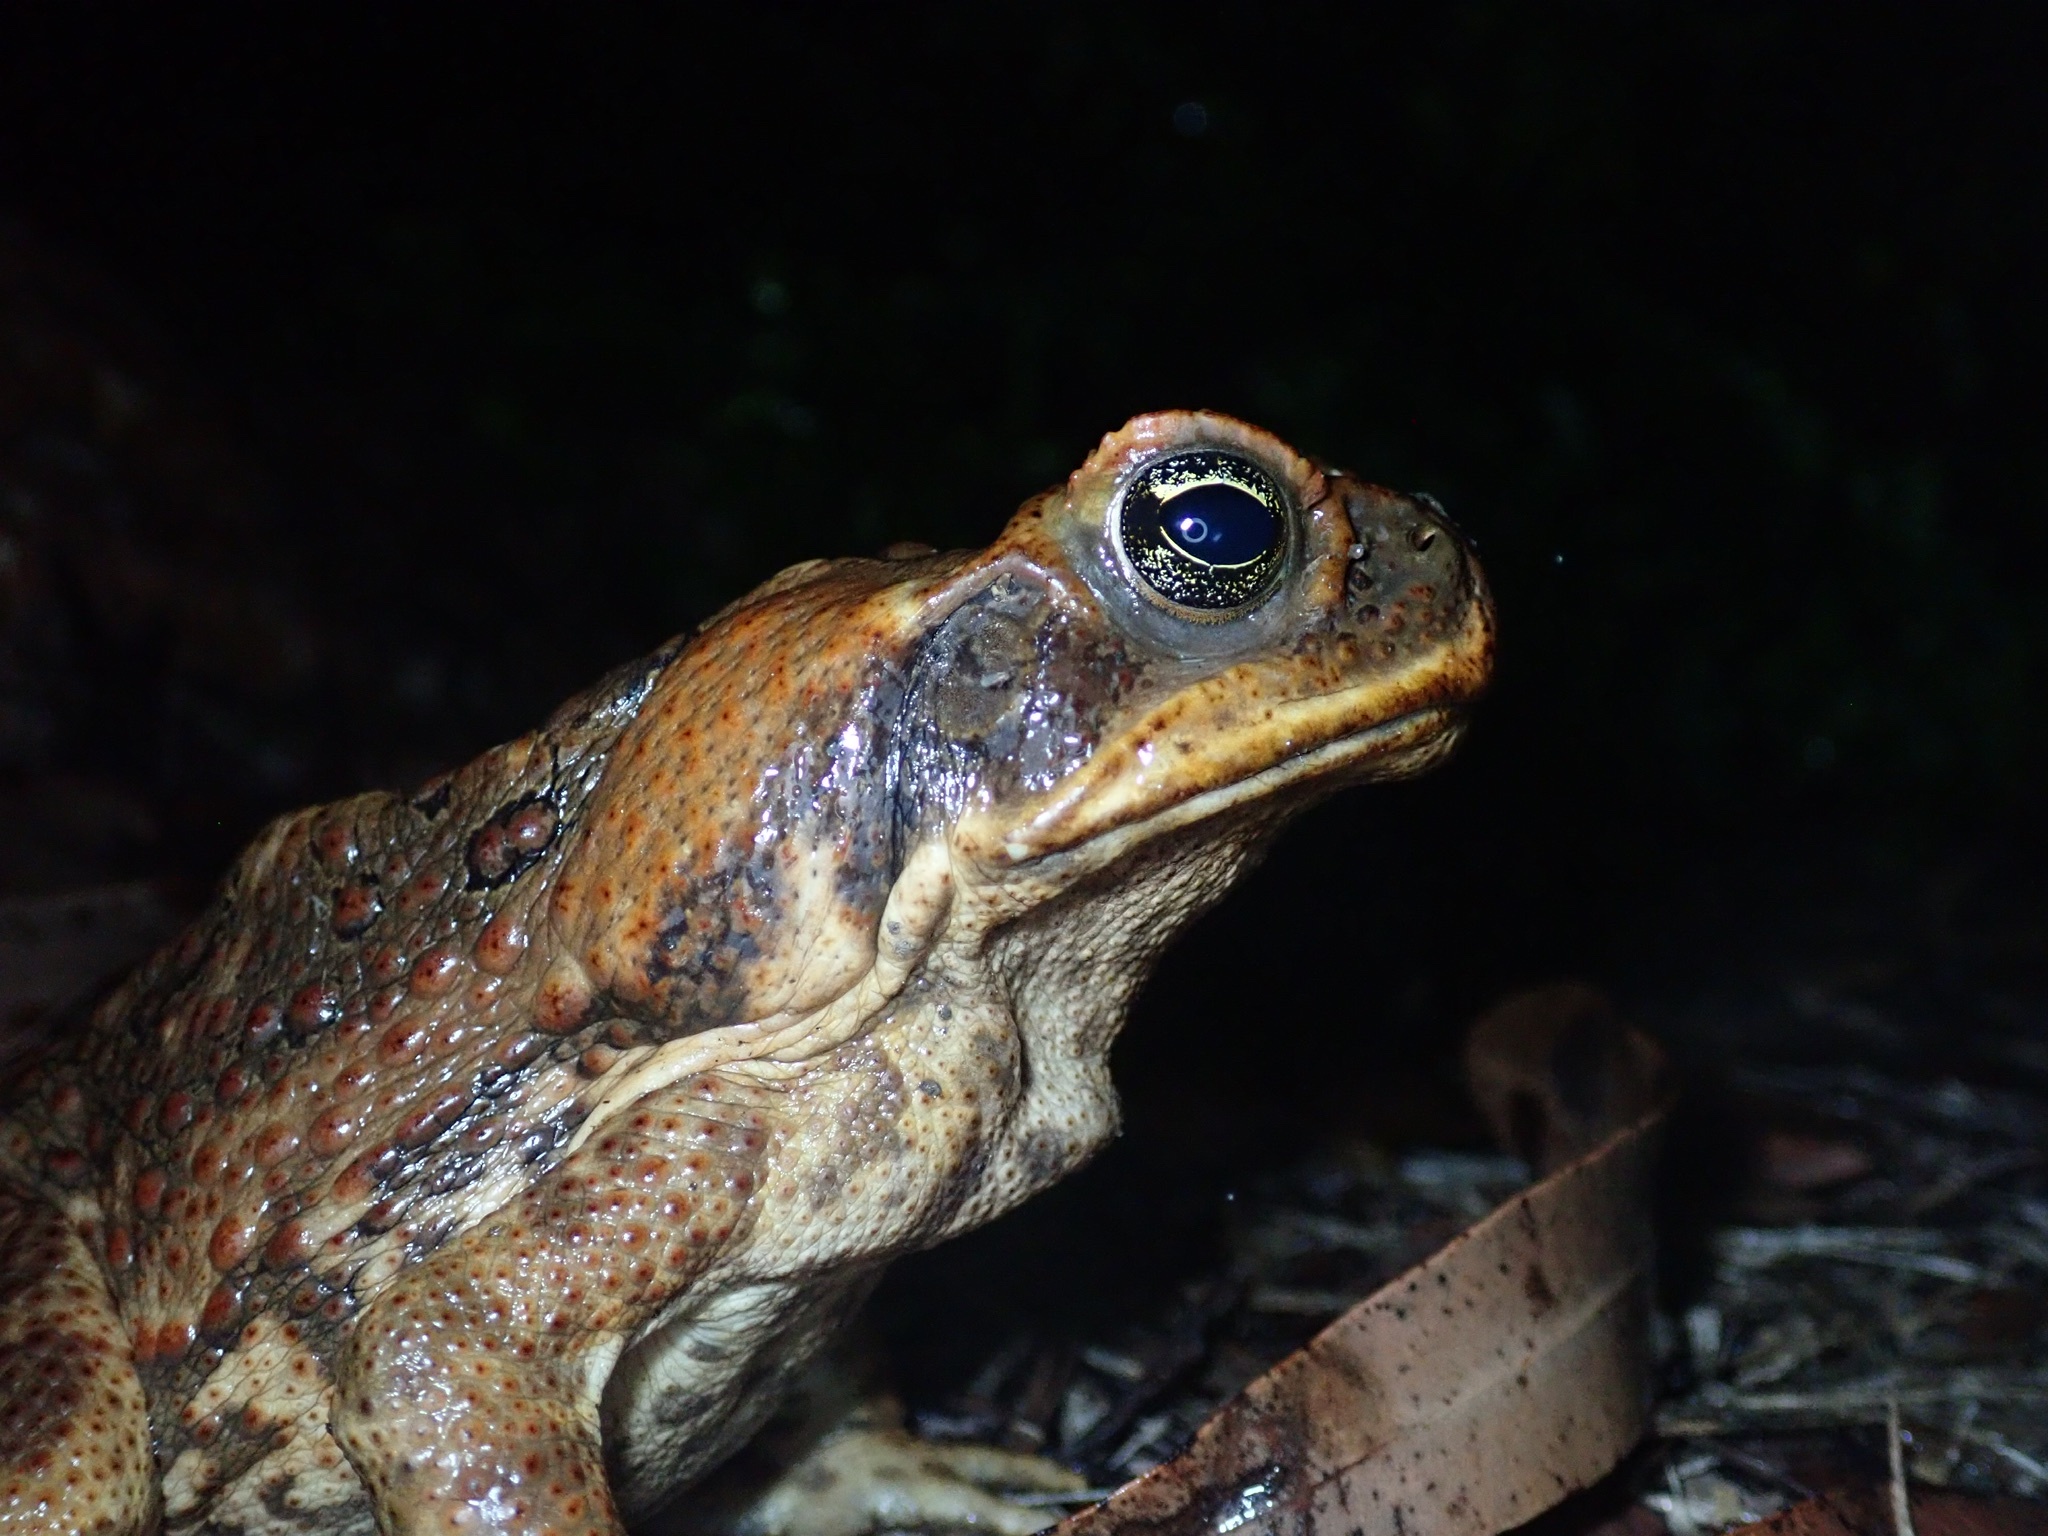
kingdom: Animalia
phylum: Chordata
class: Amphibia
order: Anura
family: Bufonidae
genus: Rhinella
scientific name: Rhinella marina
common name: Cane toad
